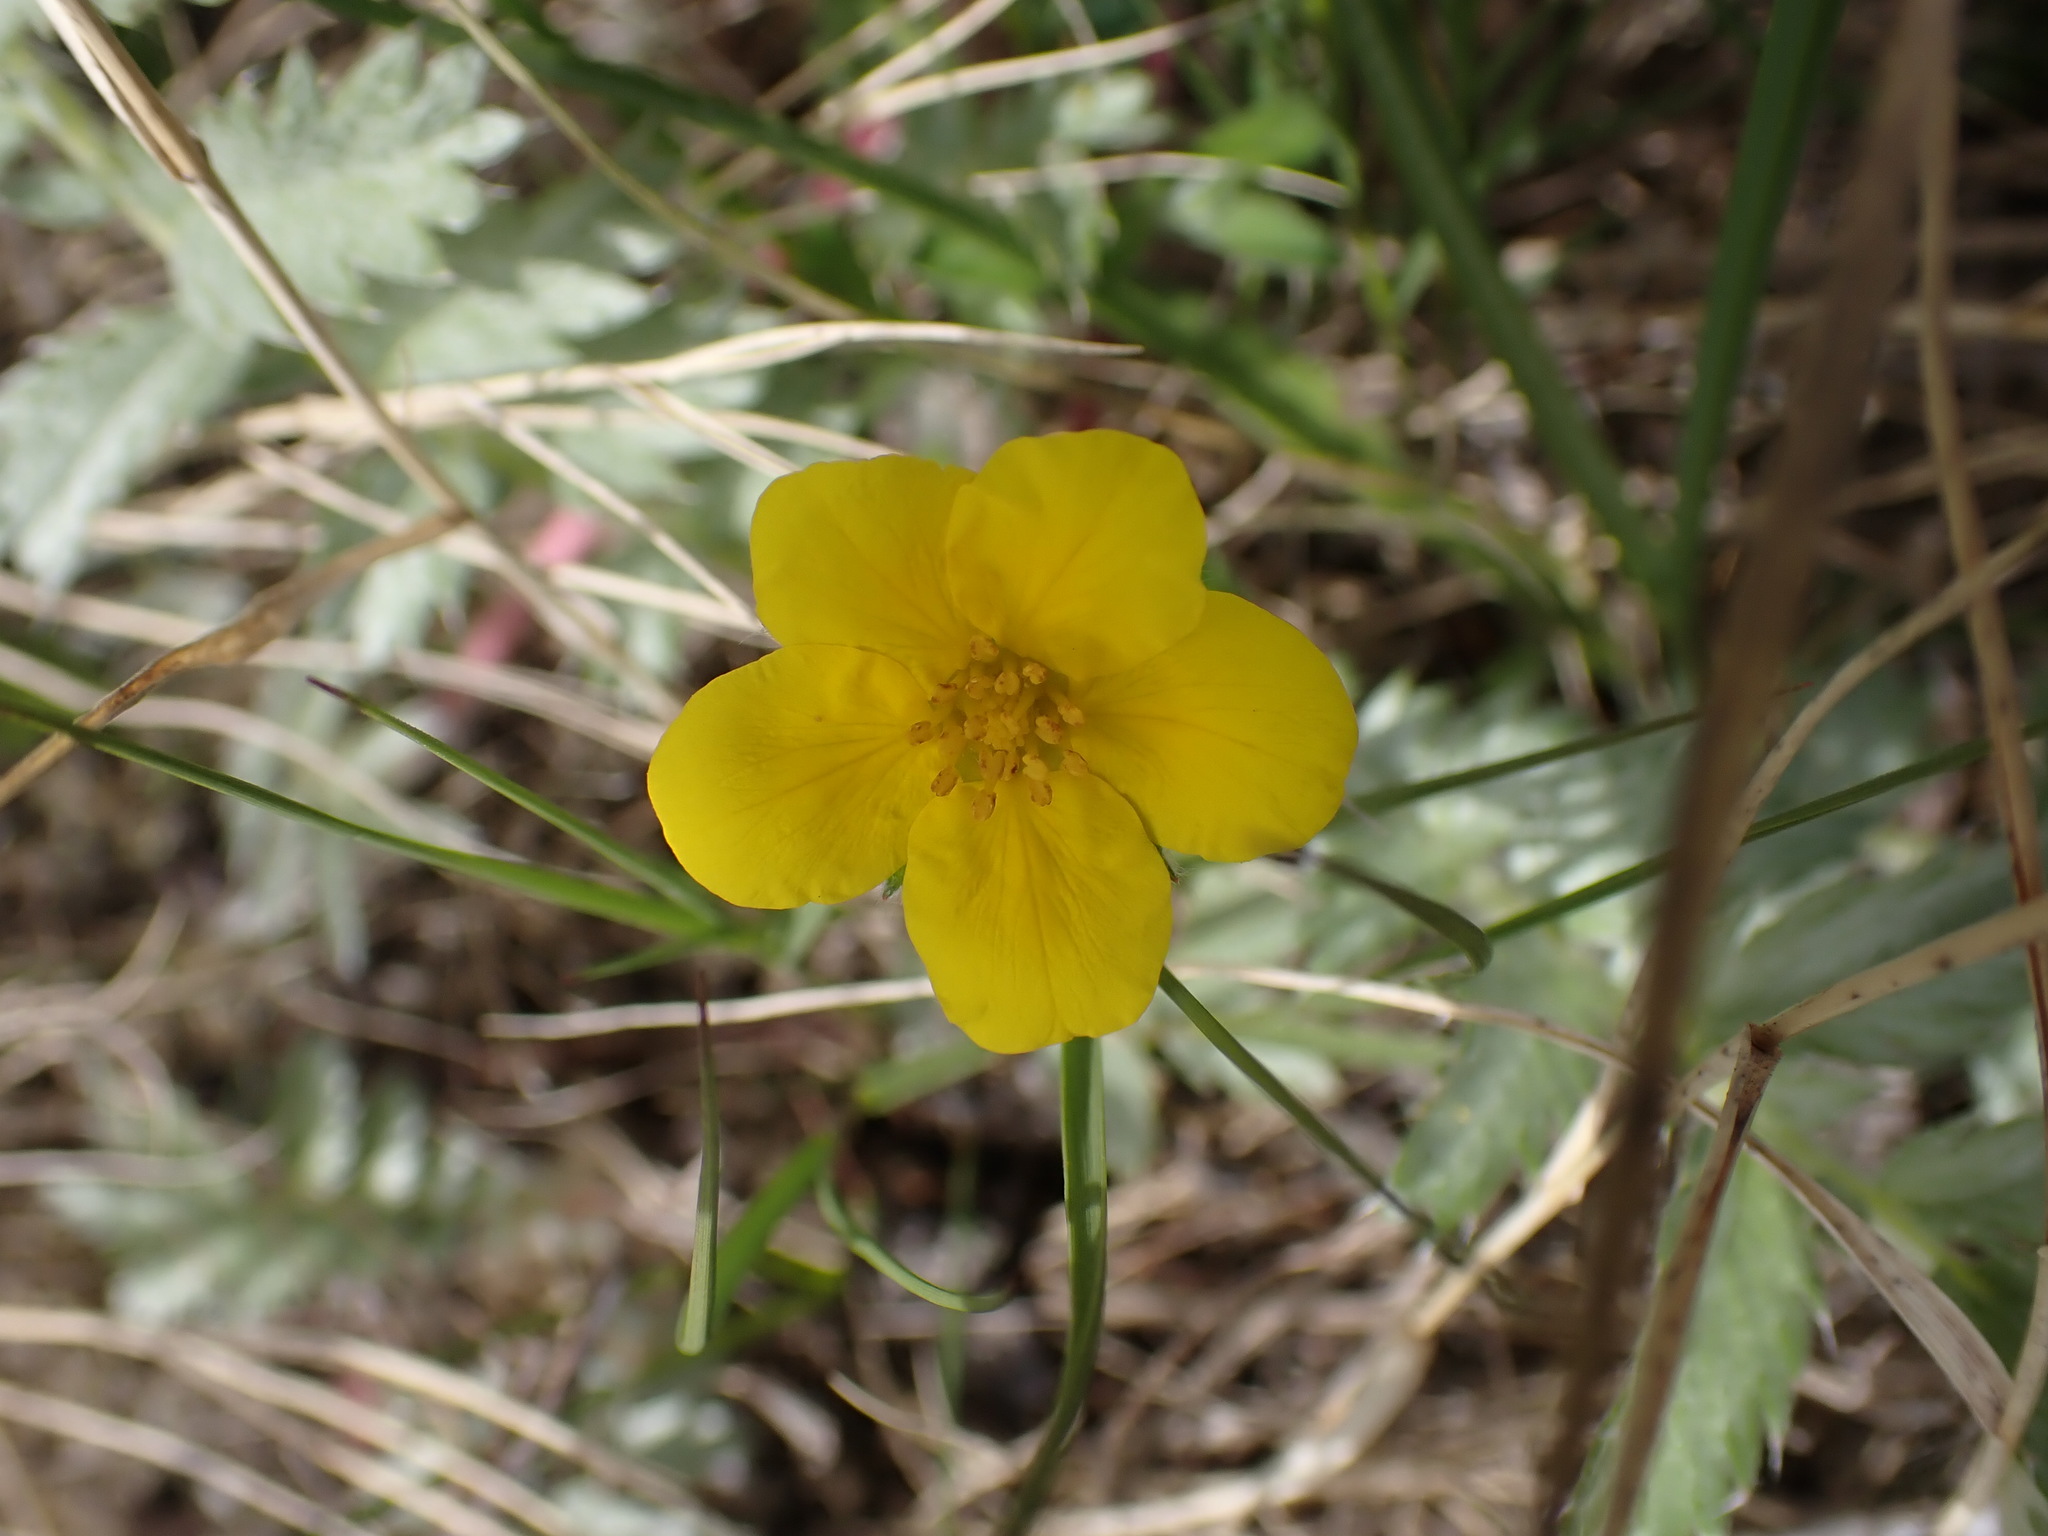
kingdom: Plantae
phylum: Tracheophyta
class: Magnoliopsida
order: Rosales
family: Rosaceae
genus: Argentina
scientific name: Argentina anserina
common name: Common silverweed
